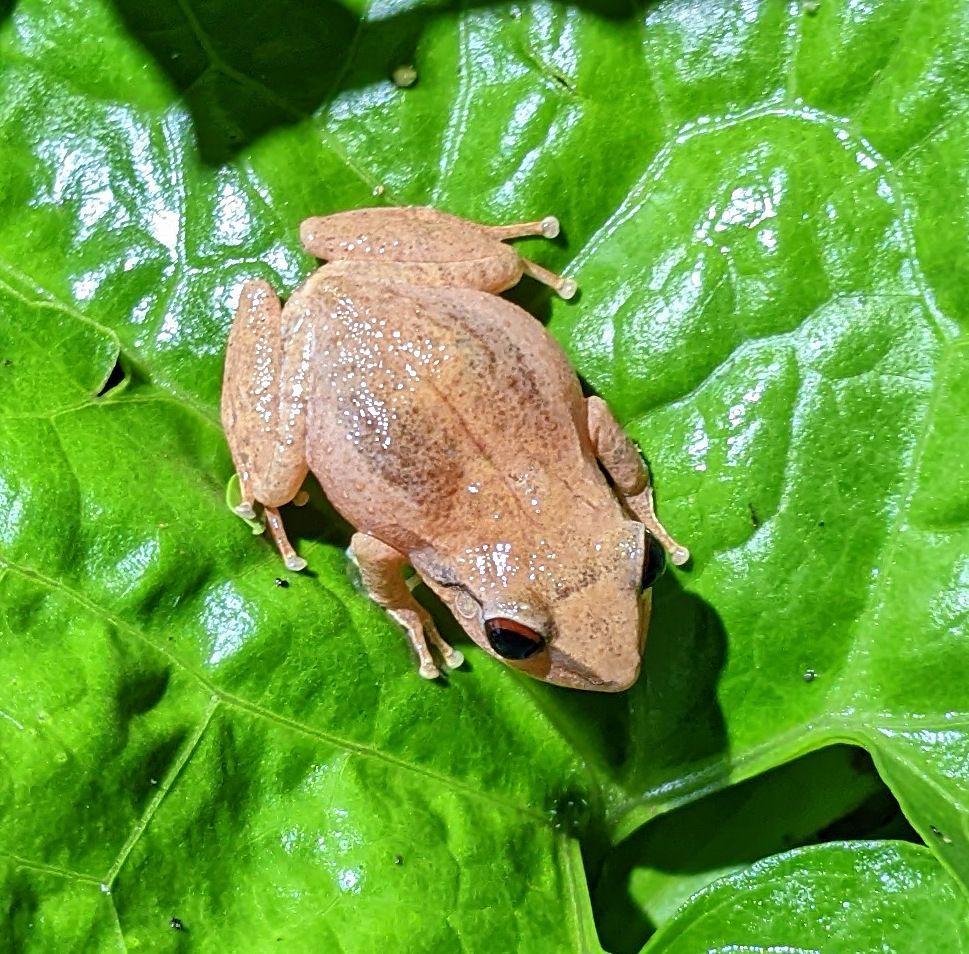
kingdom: Animalia
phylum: Chordata
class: Amphibia
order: Anura
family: Eleutherodactylidae
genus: Eleutherodactylus
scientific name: Eleutherodactylus antillensis
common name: Antillean coqui
